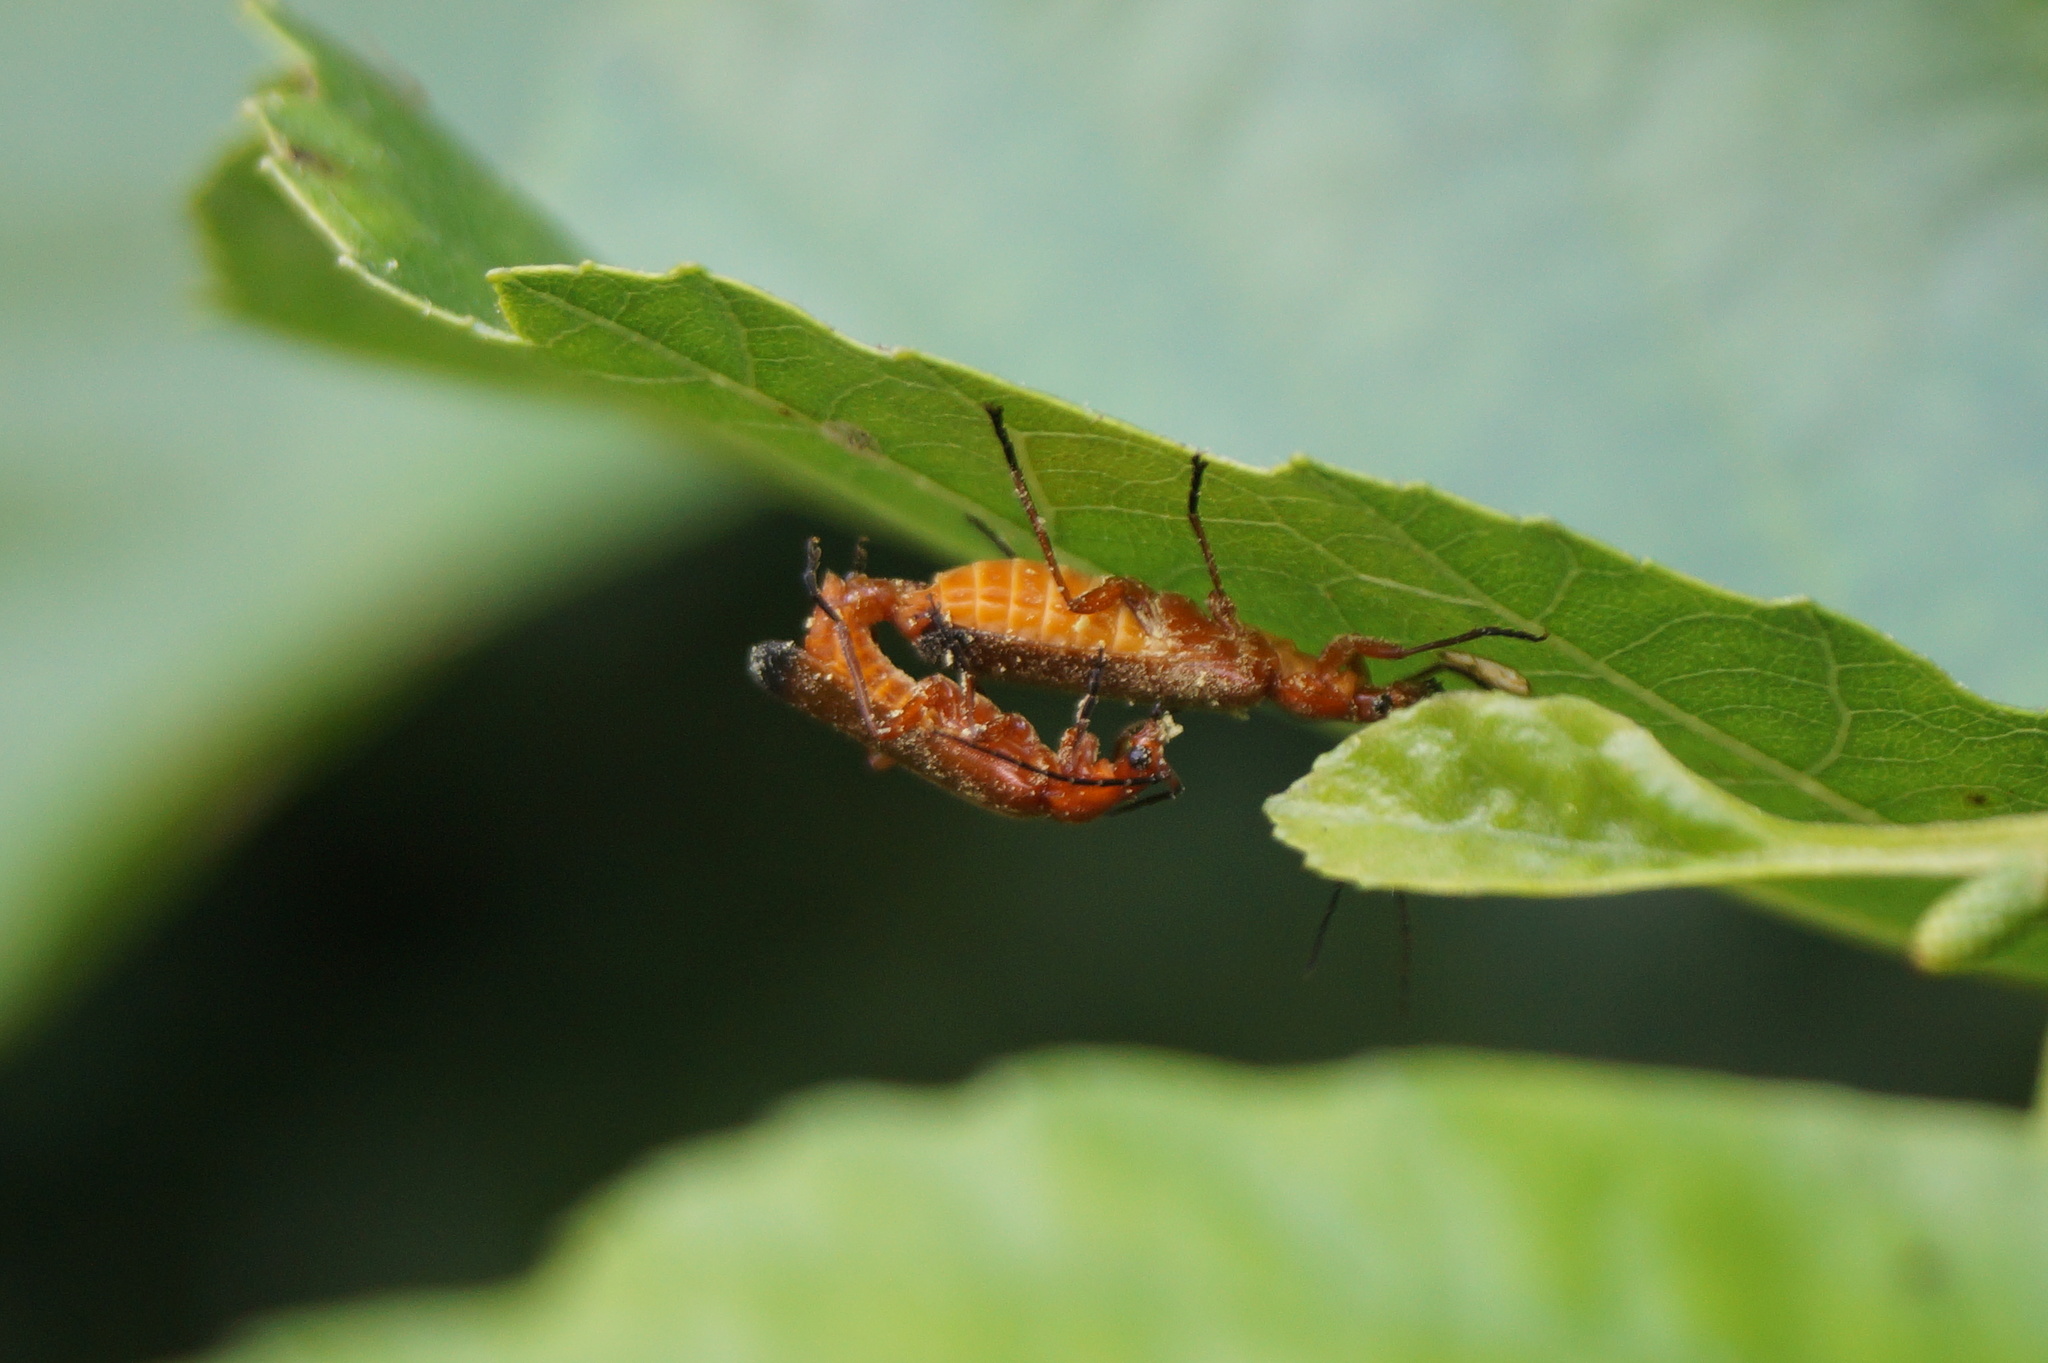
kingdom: Animalia
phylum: Arthropoda
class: Insecta
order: Coleoptera
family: Cantharidae
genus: Rhagonycha
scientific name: Rhagonycha fulva
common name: Common red soldier beetle
